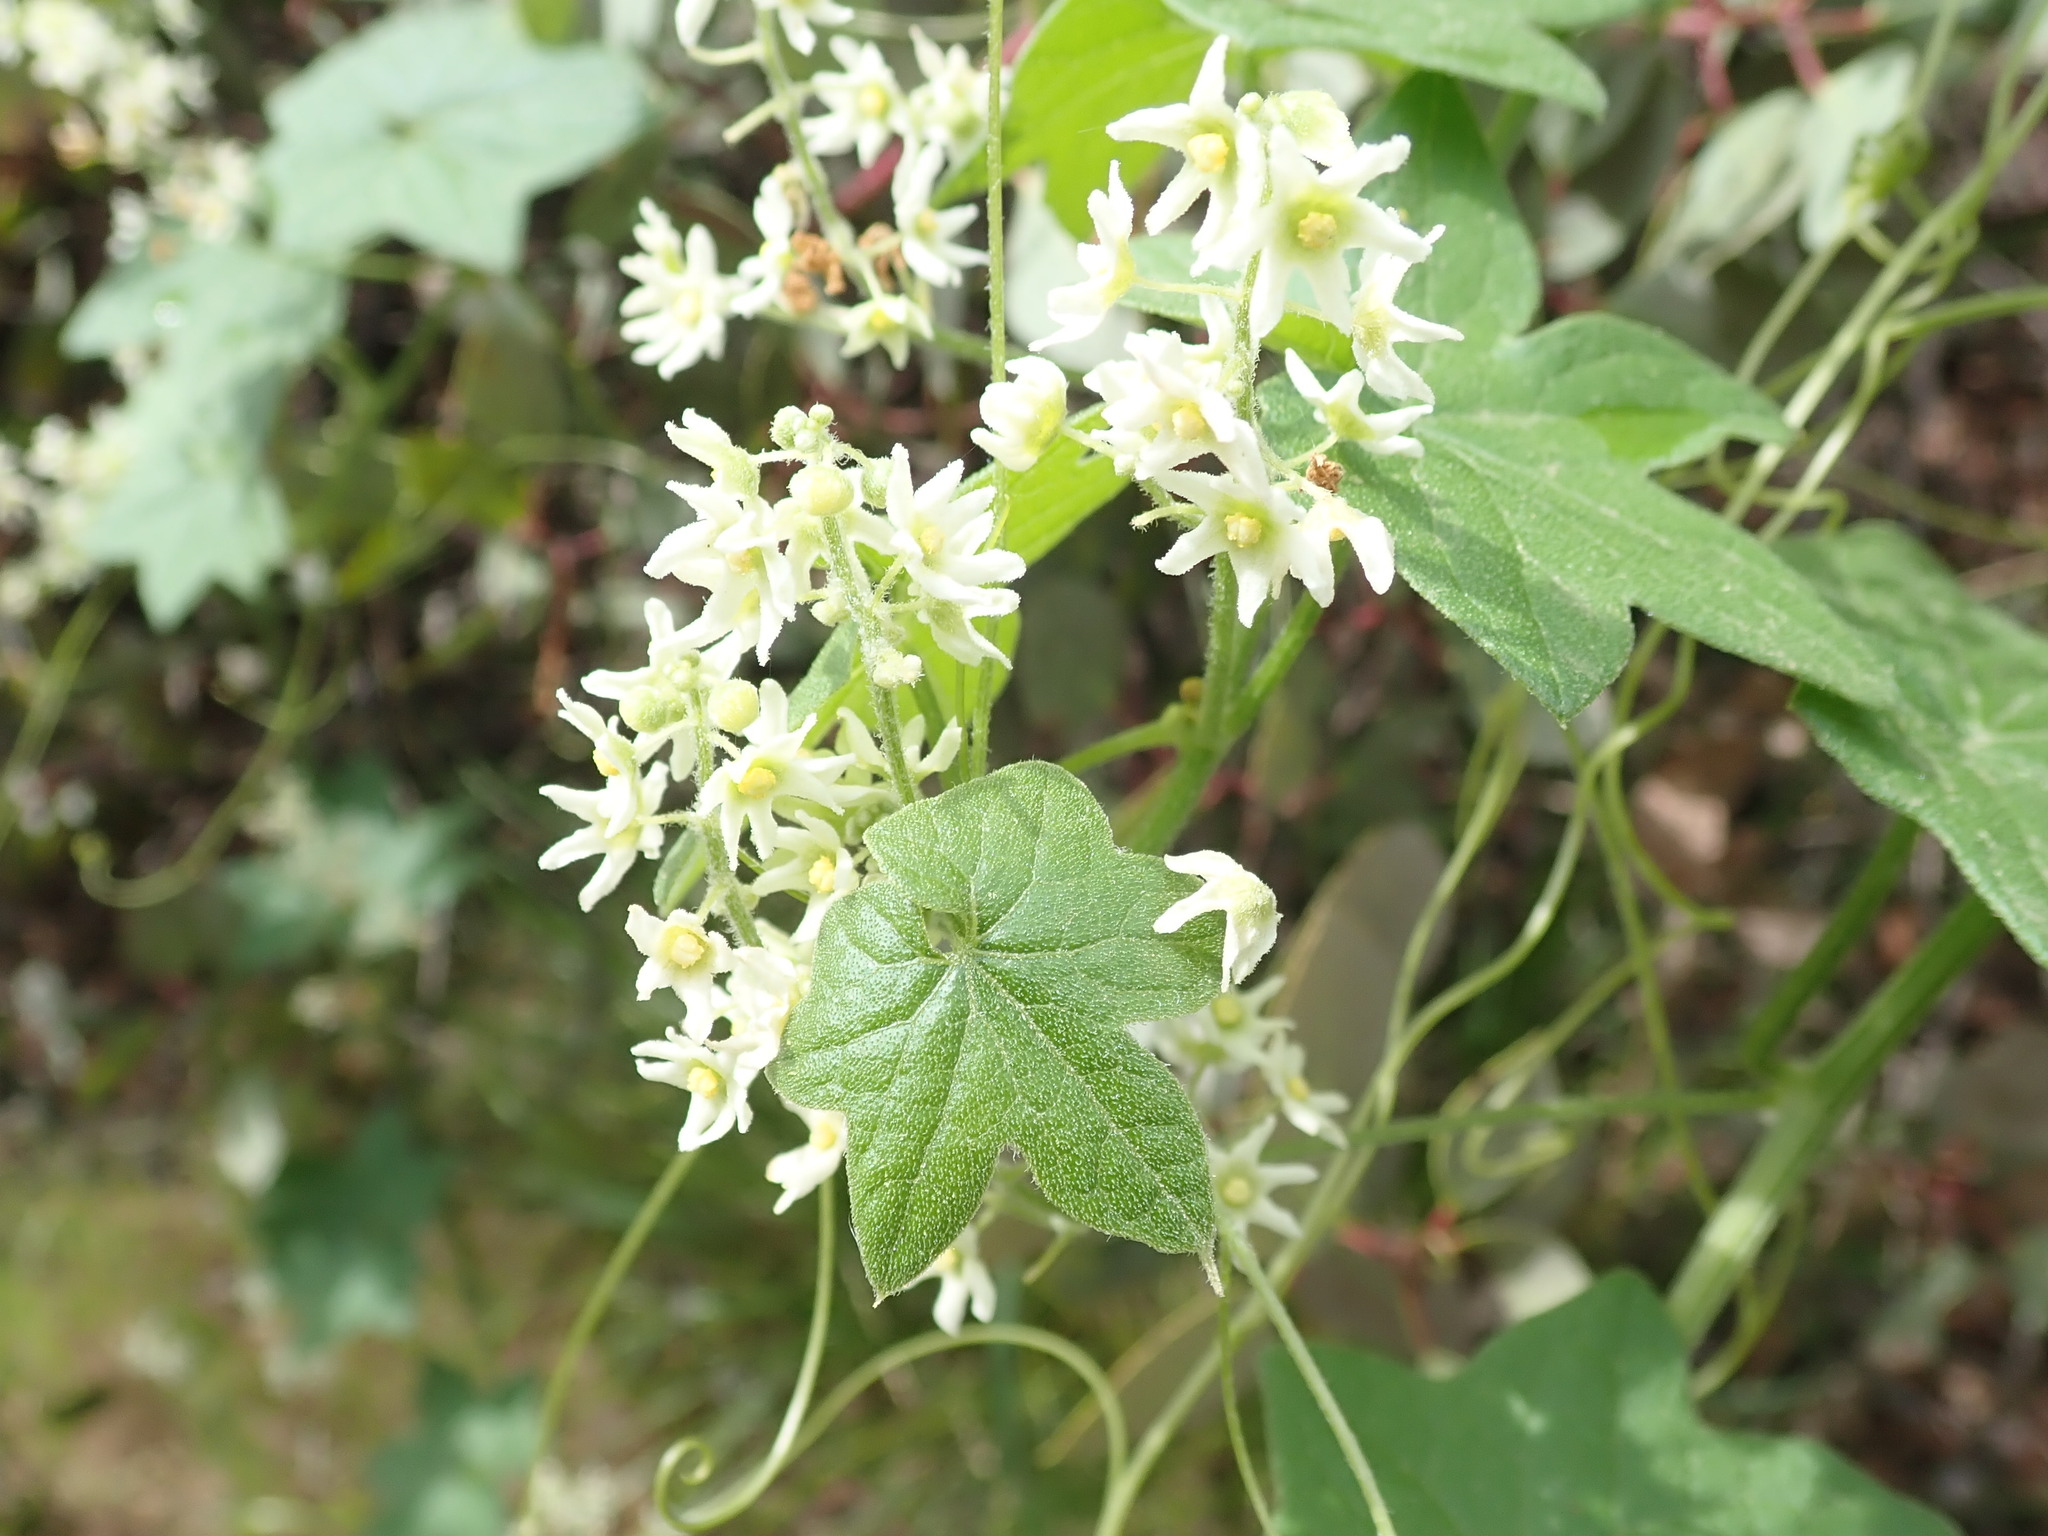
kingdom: Plantae
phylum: Tracheophyta
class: Magnoliopsida
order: Cucurbitales
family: Cucurbitaceae
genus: Marah
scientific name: Marah fabacea
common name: California manroot
